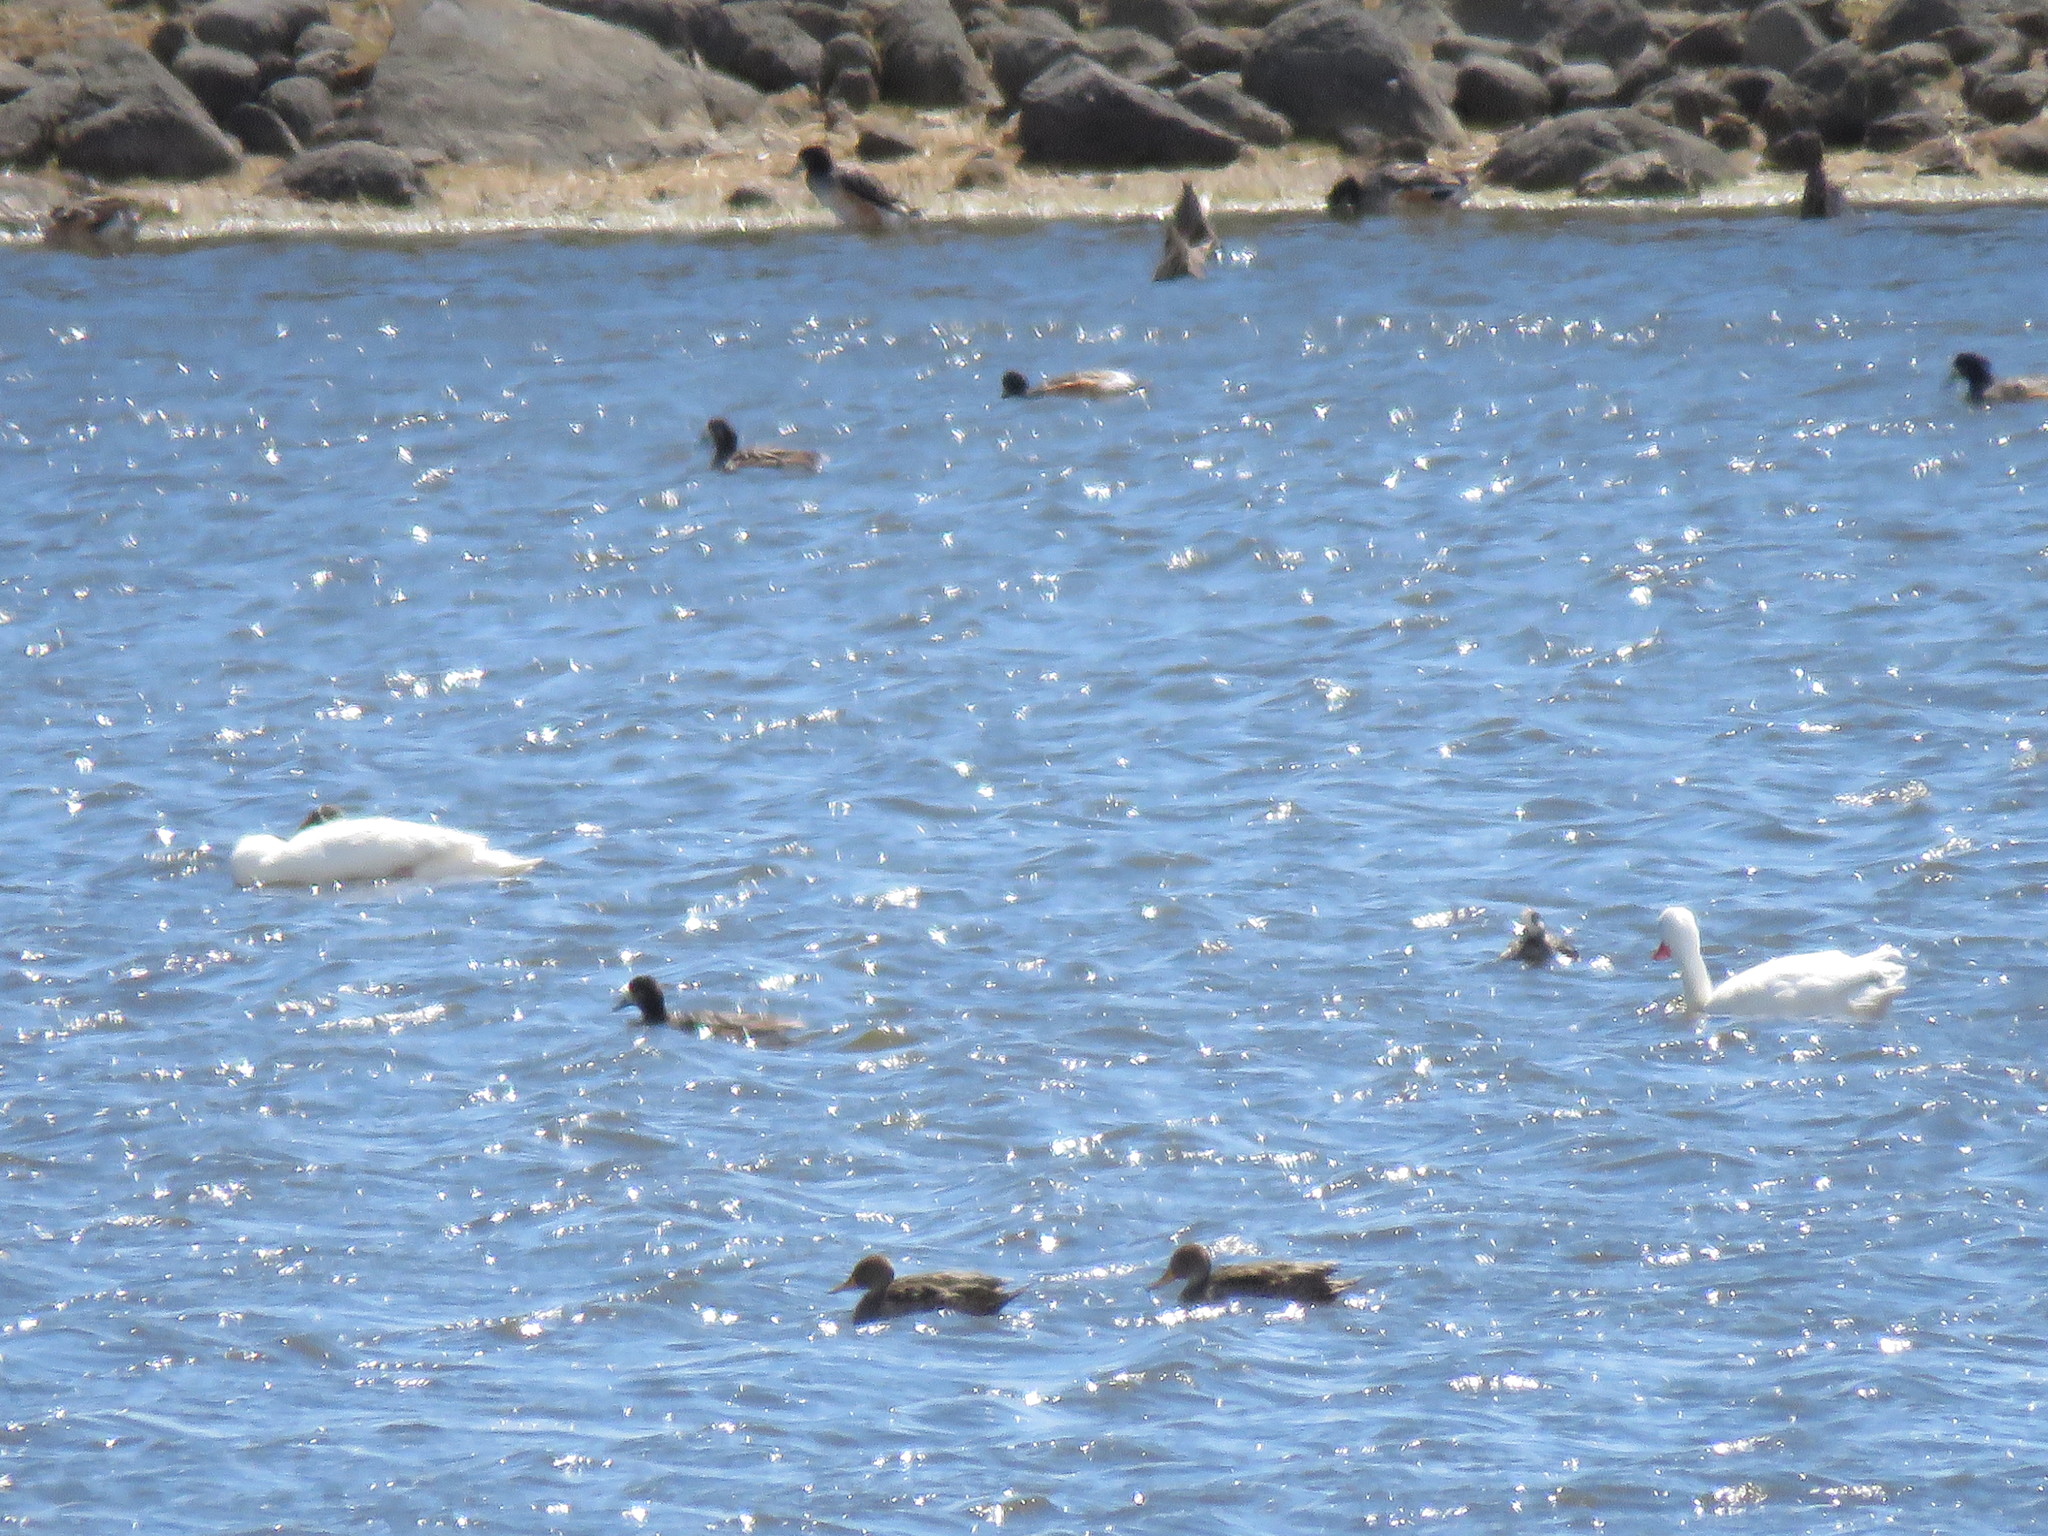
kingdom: Animalia
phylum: Chordata
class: Aves
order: Anseriformes
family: Anatidae
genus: Coscoroba
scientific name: Coscoroba coscoroba
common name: Coscoroba swan
